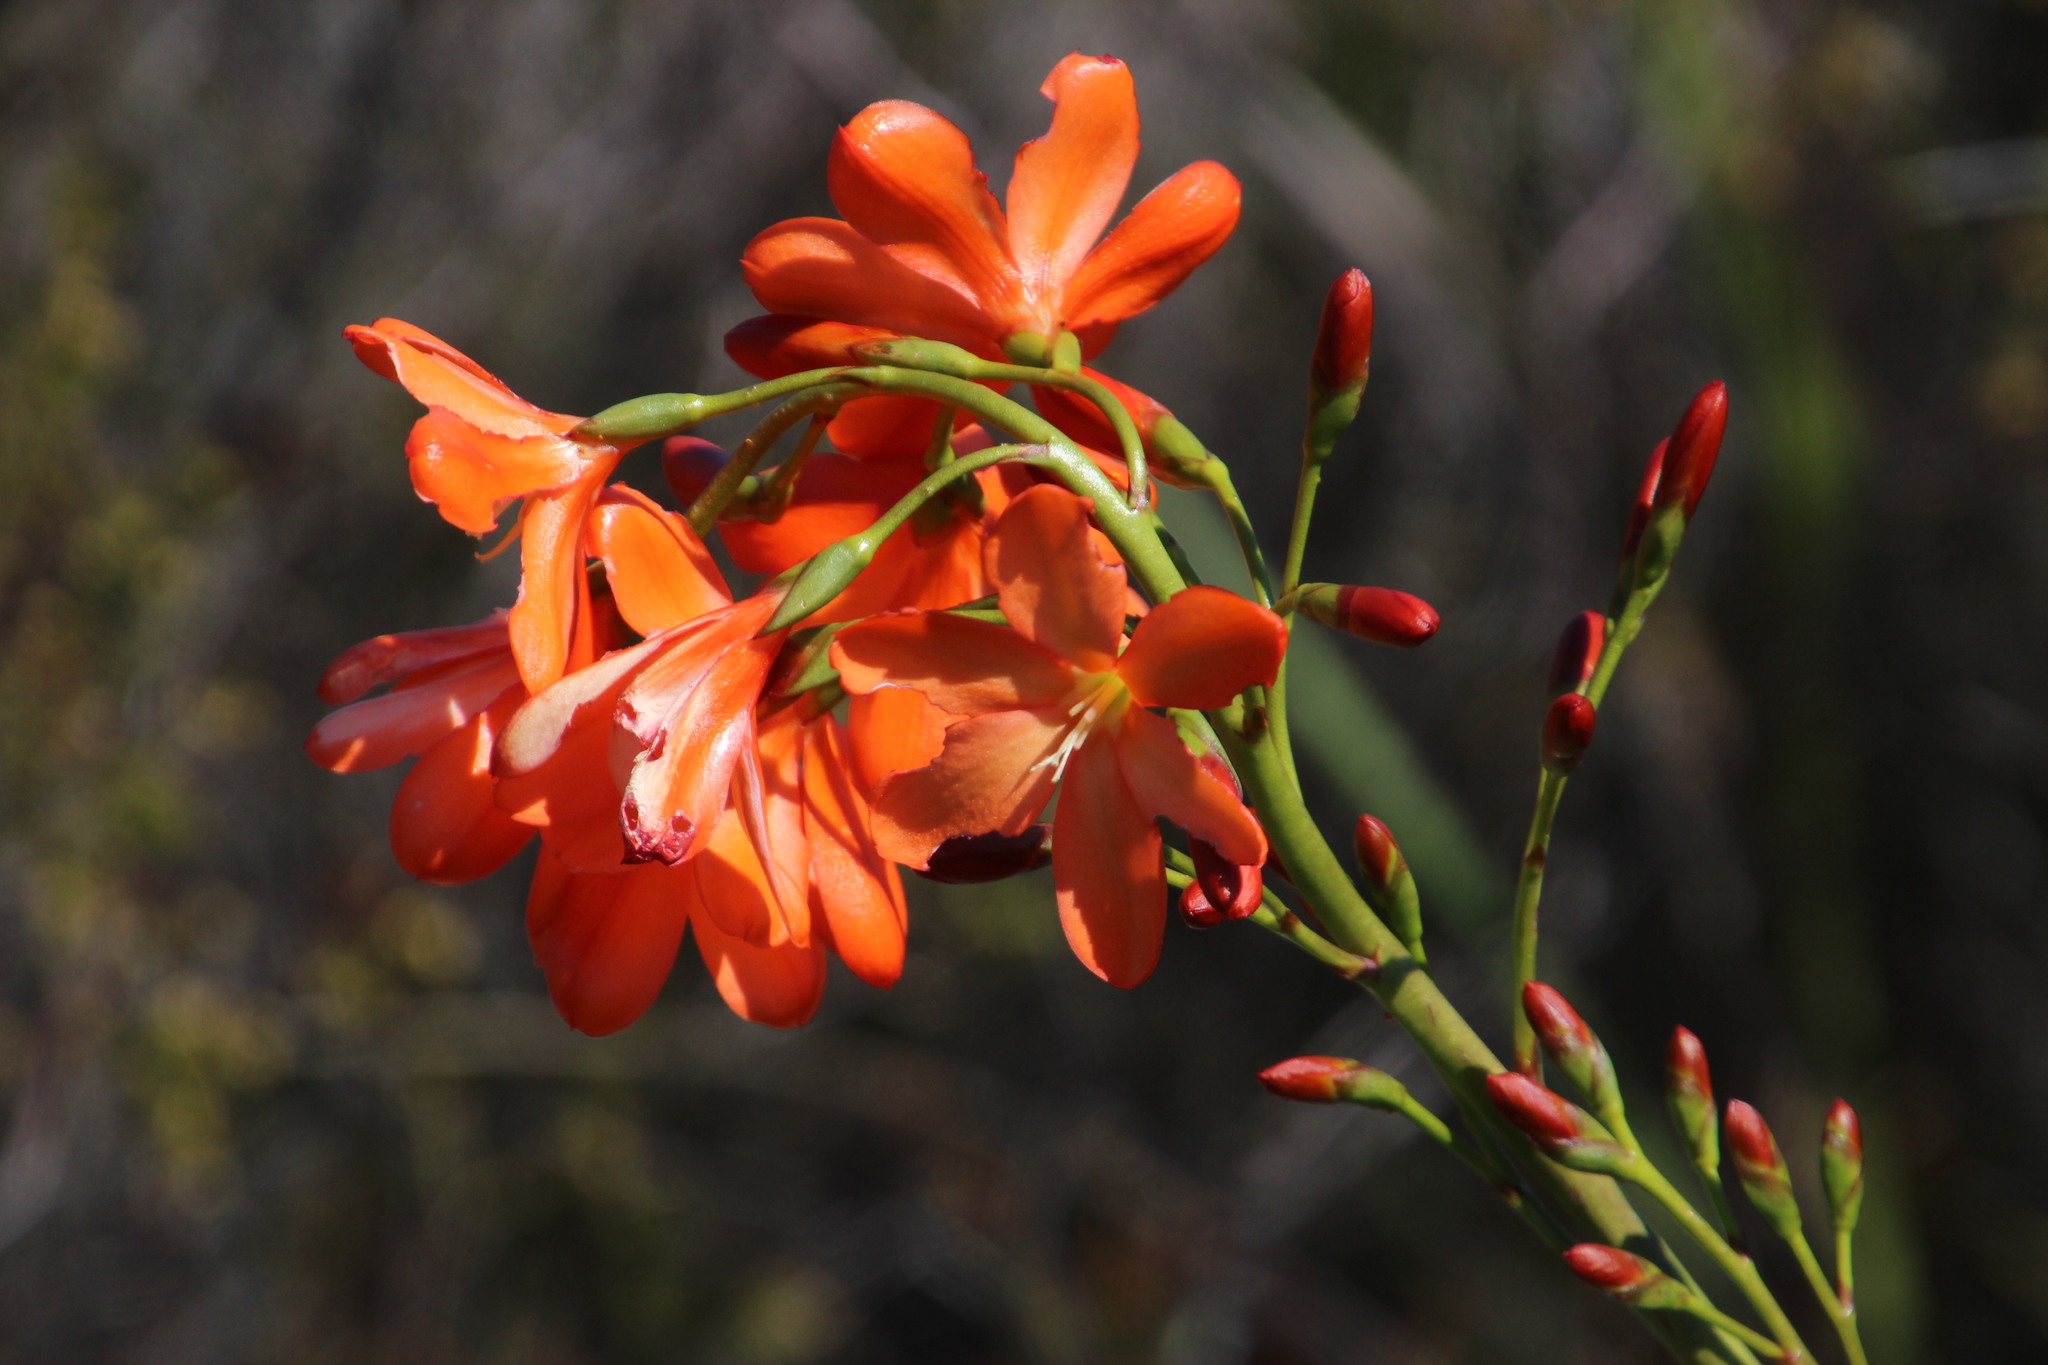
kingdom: Plantae
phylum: Tracheophyta
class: Liliopsida
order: Asparagales
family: Iridaceae
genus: Pillansia
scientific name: Pillansia templemannii
